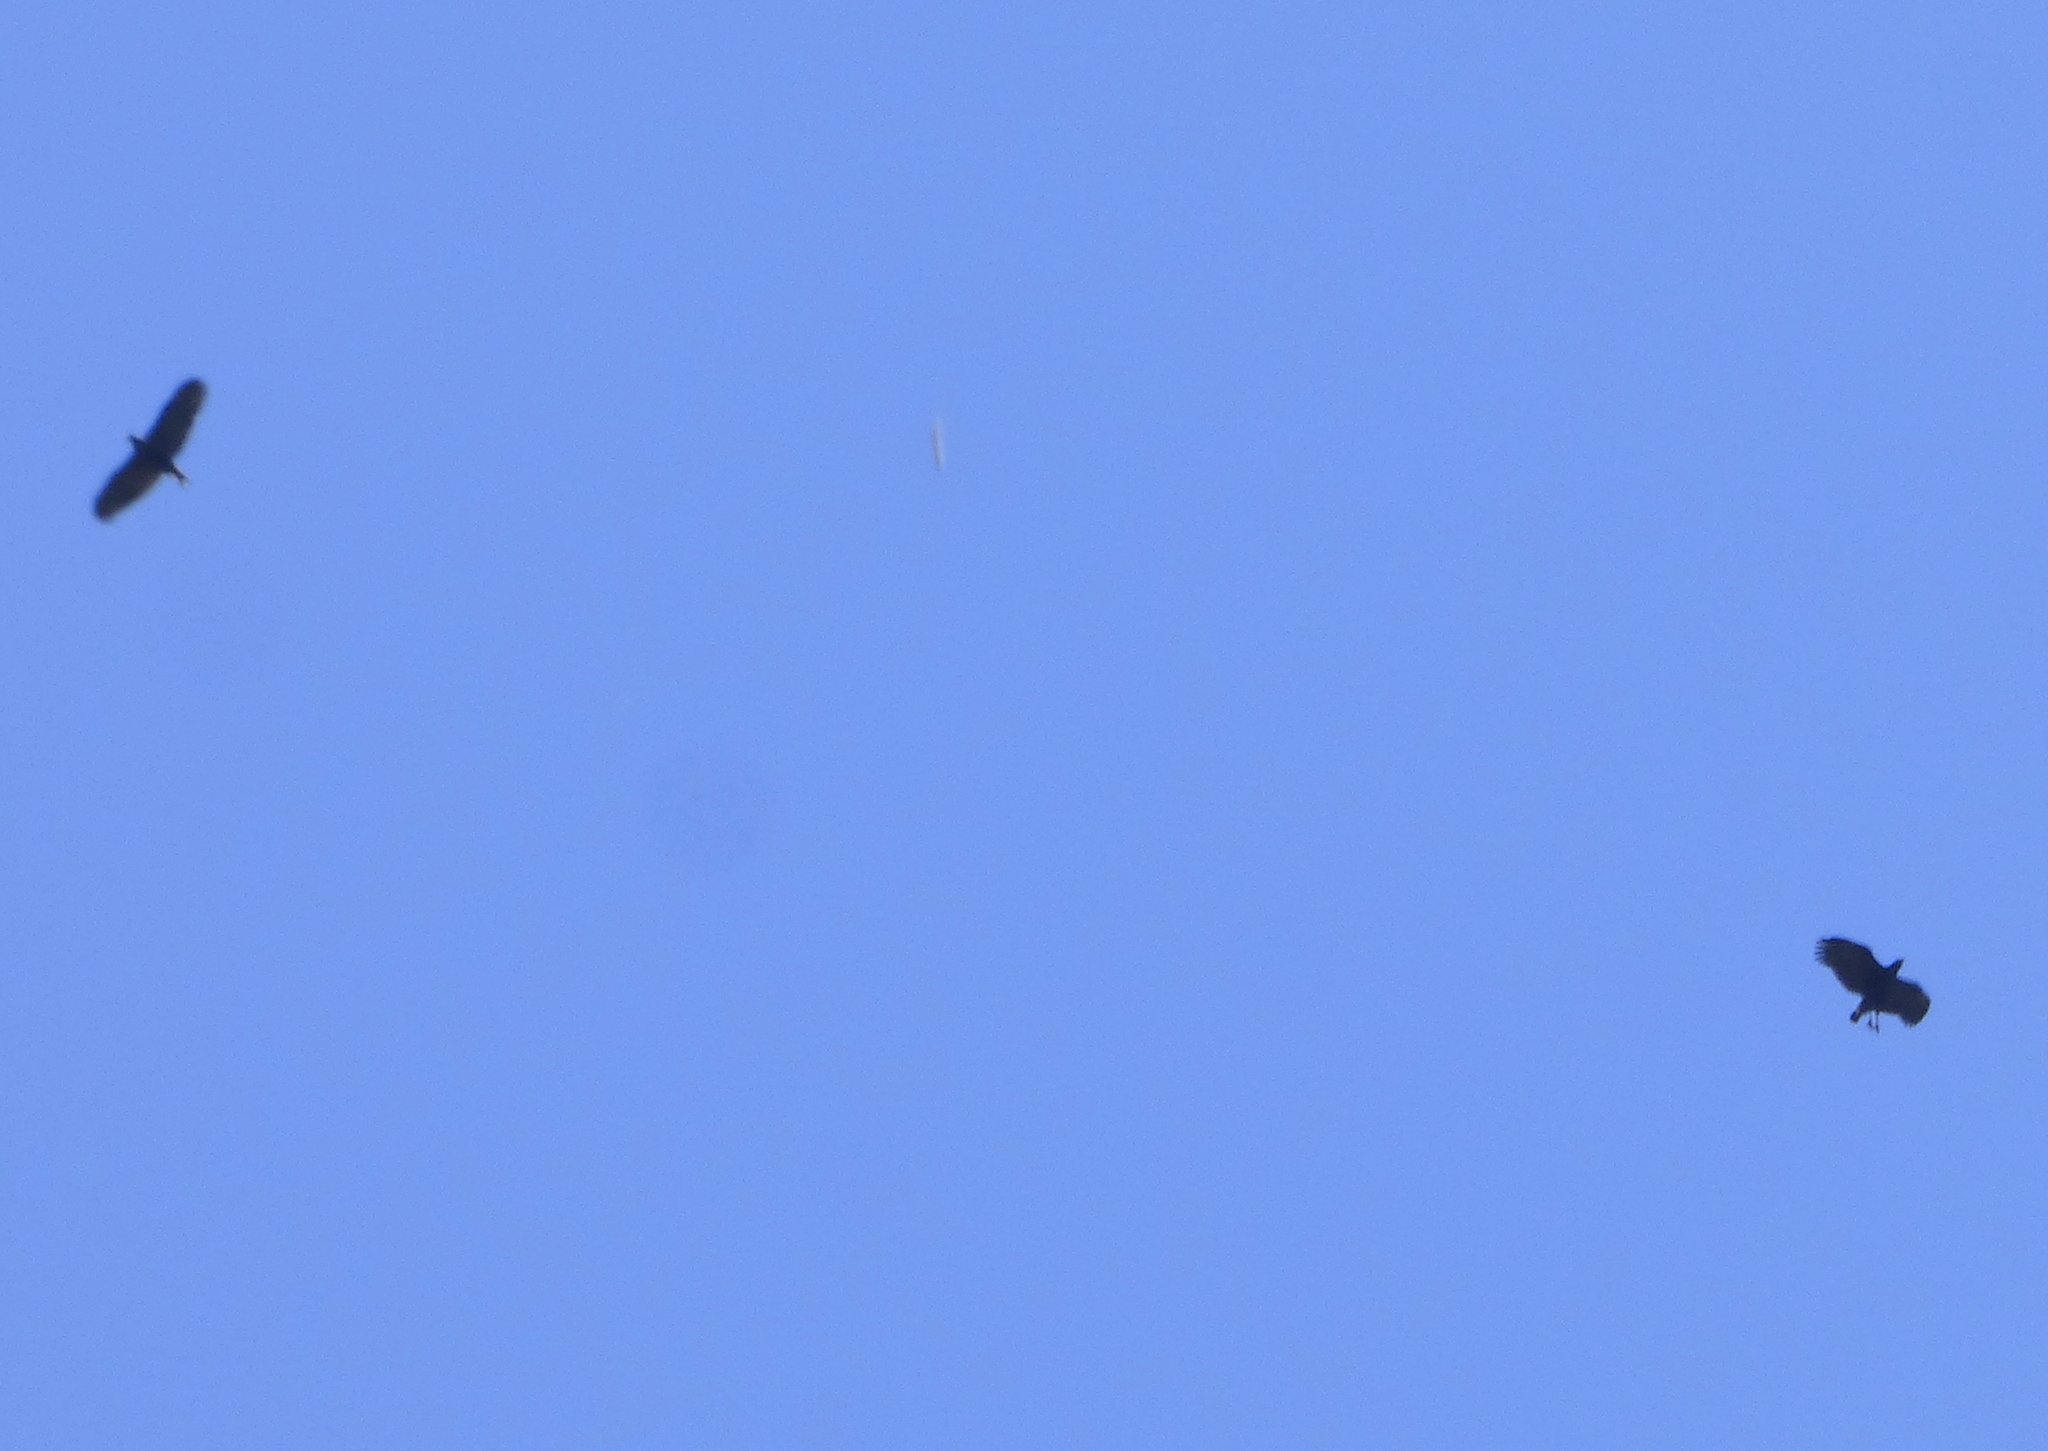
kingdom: Animalia
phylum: Chordata
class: Aves
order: Accipitriformes
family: Accipitridae
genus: Buteogallus
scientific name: Buteogallus urubitinga
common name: Great black hawk
